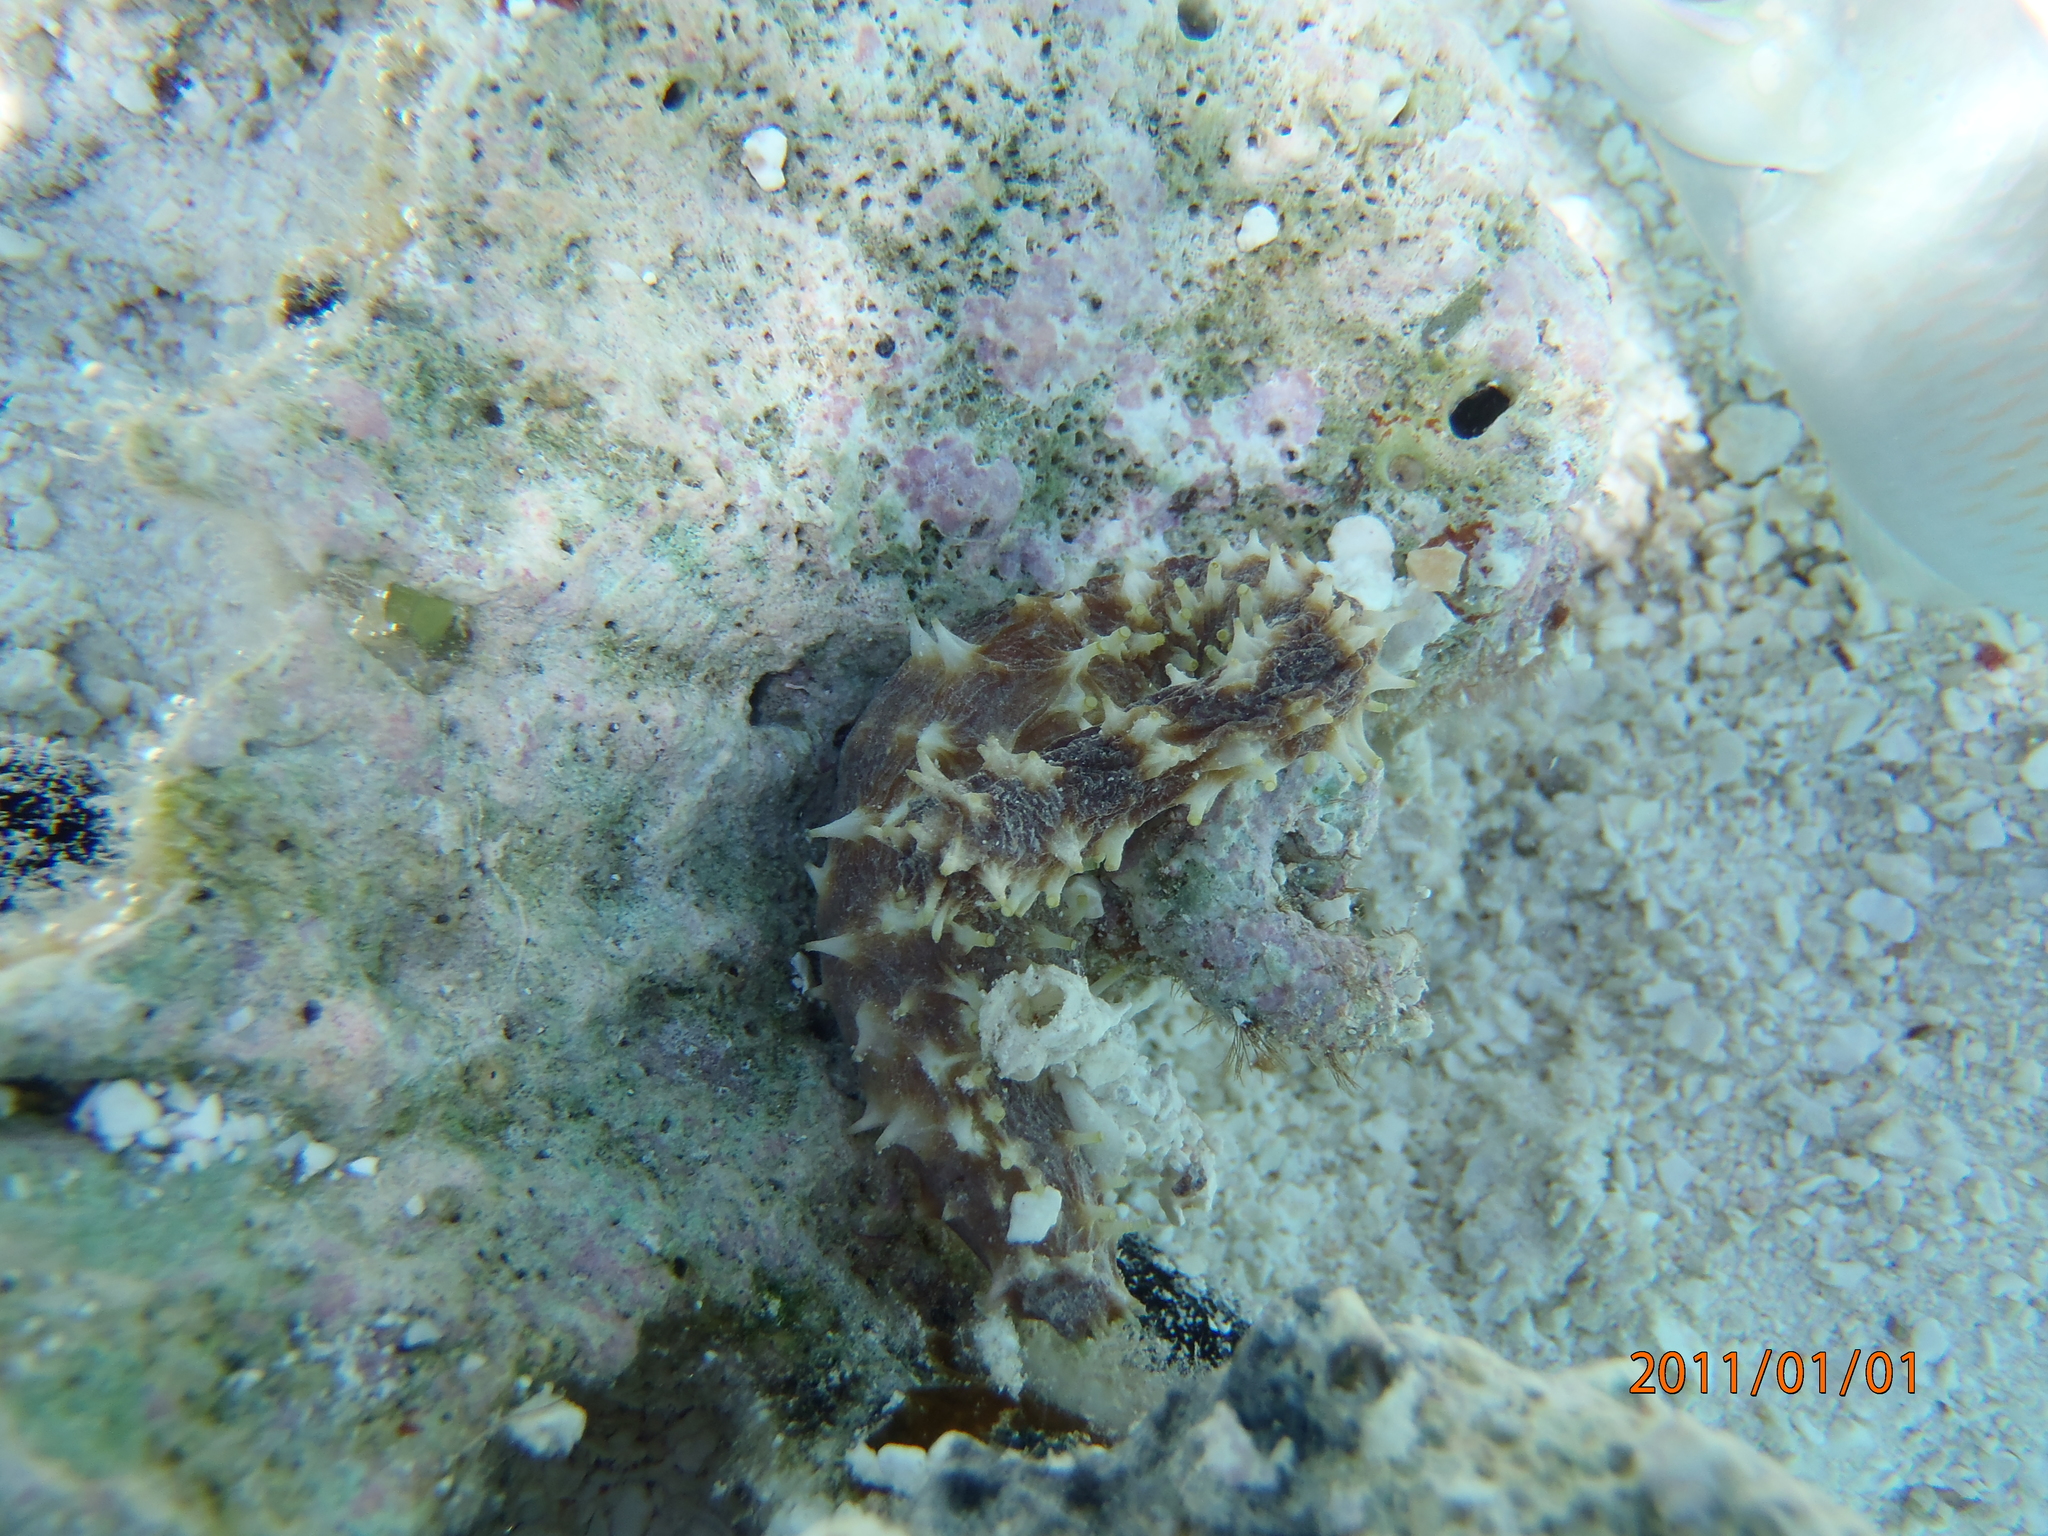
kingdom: Animalia
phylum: Echinodermata
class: Holothuroidea
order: Holothuriida
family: Holothuriidae
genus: Holothuria
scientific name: Holothuria hilla
